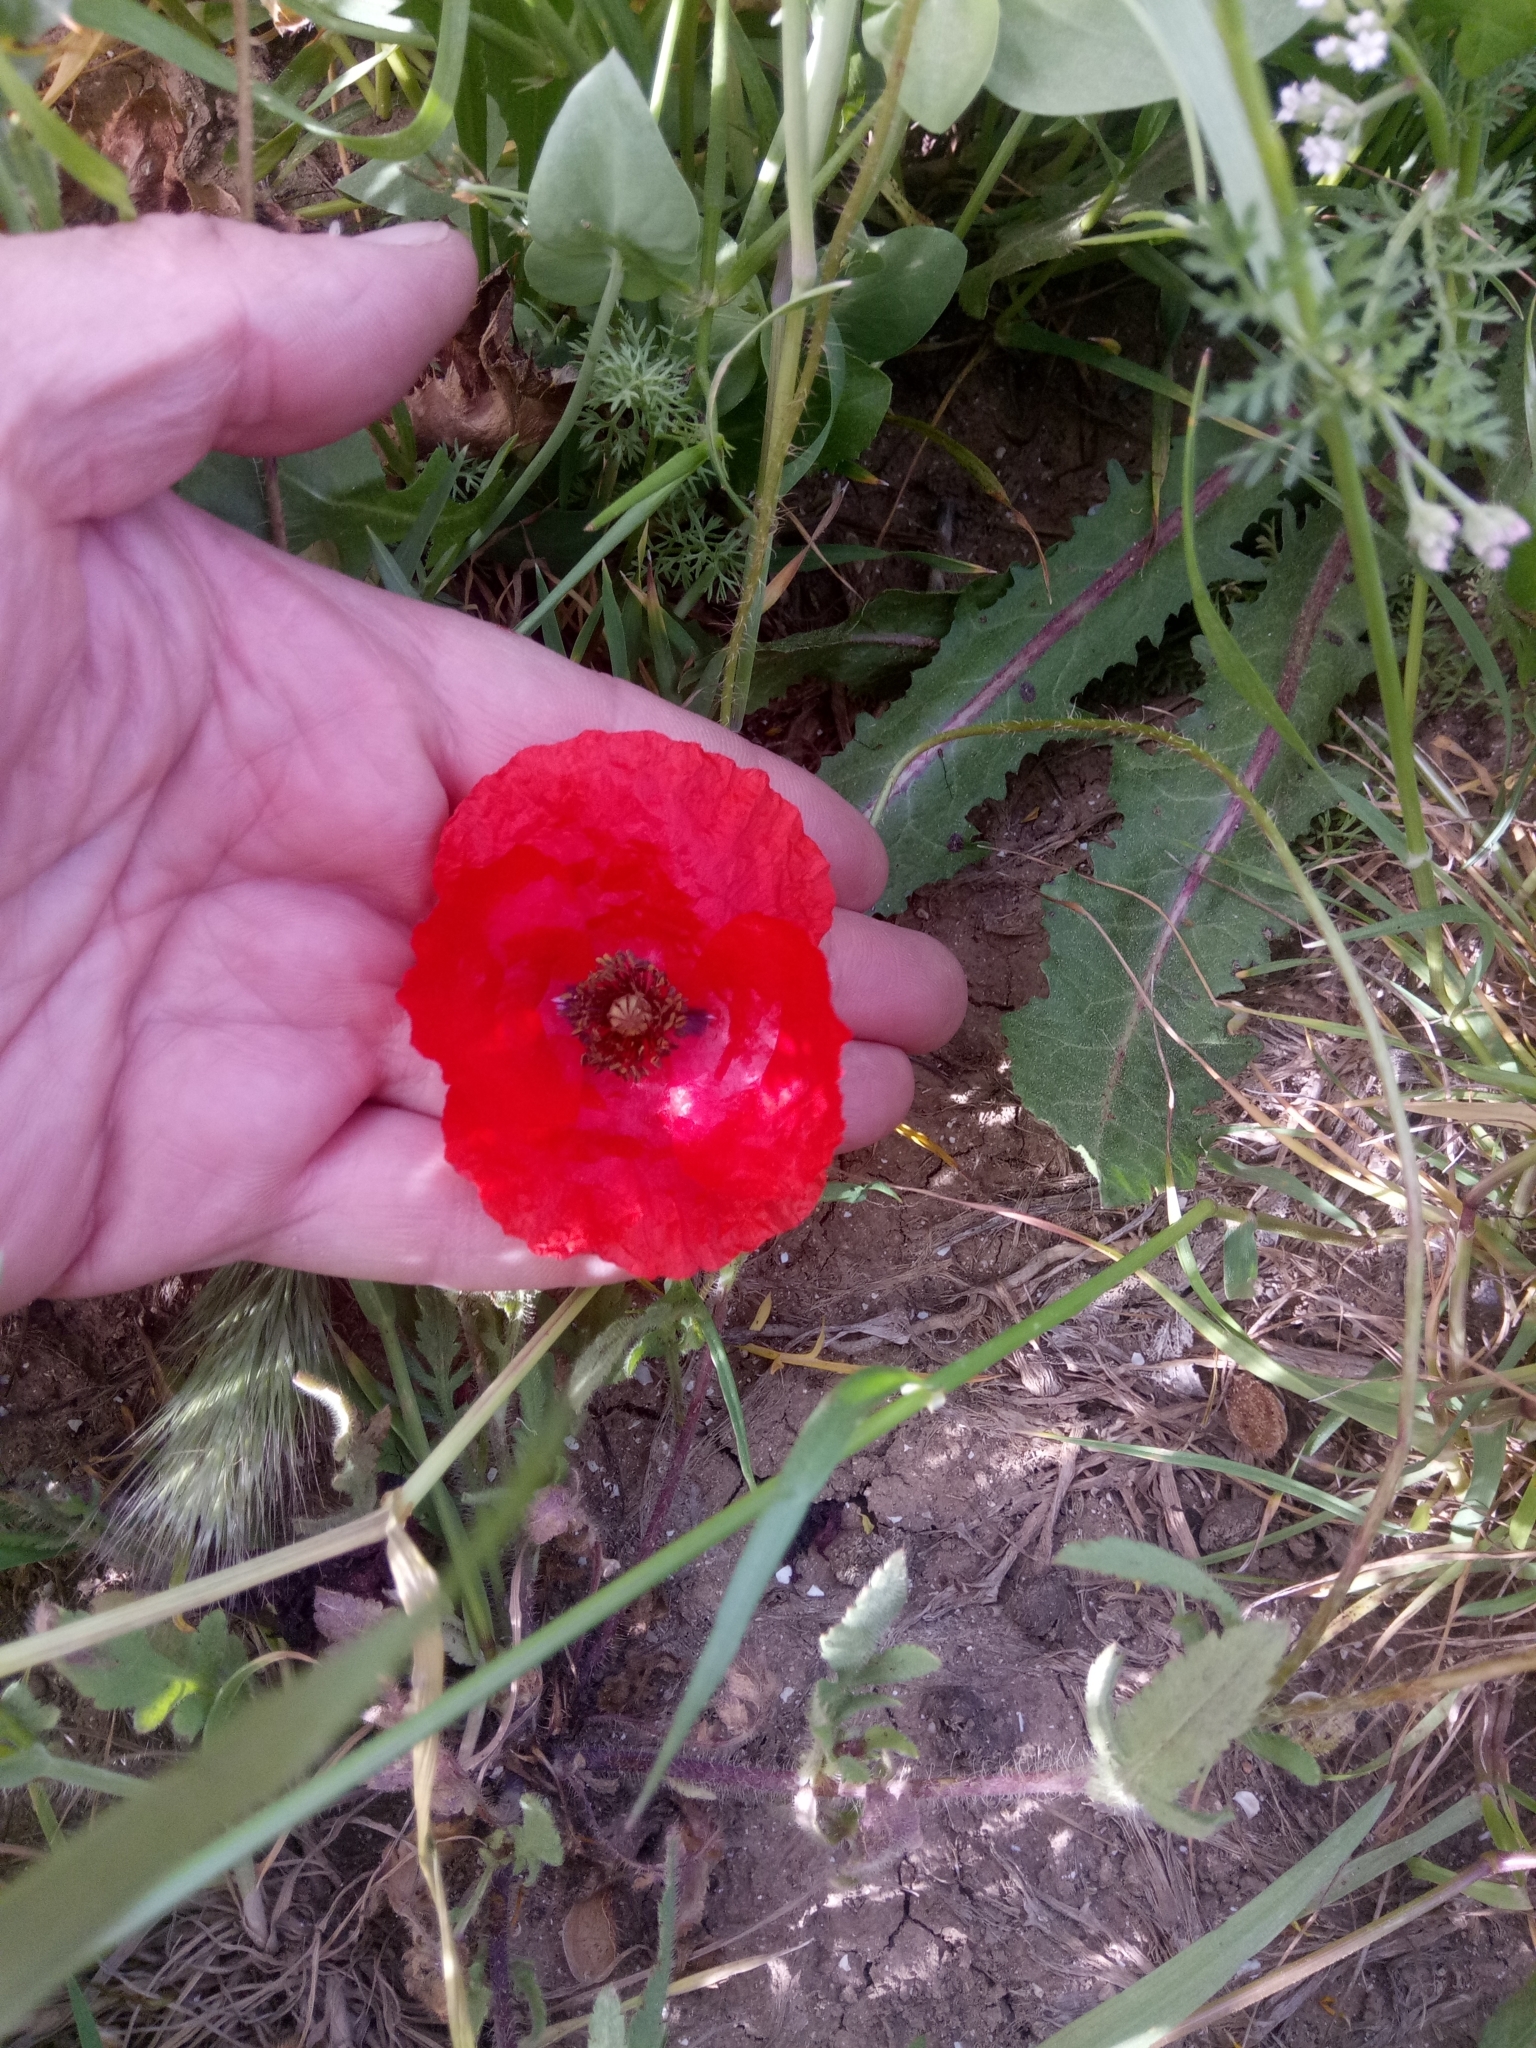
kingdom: Plantae
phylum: Tracheophyta
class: Magnoliopsida
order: Ranunculales
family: Papaveraceae
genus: Papaver
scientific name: Papaver rhoeas
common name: Corn poppy
